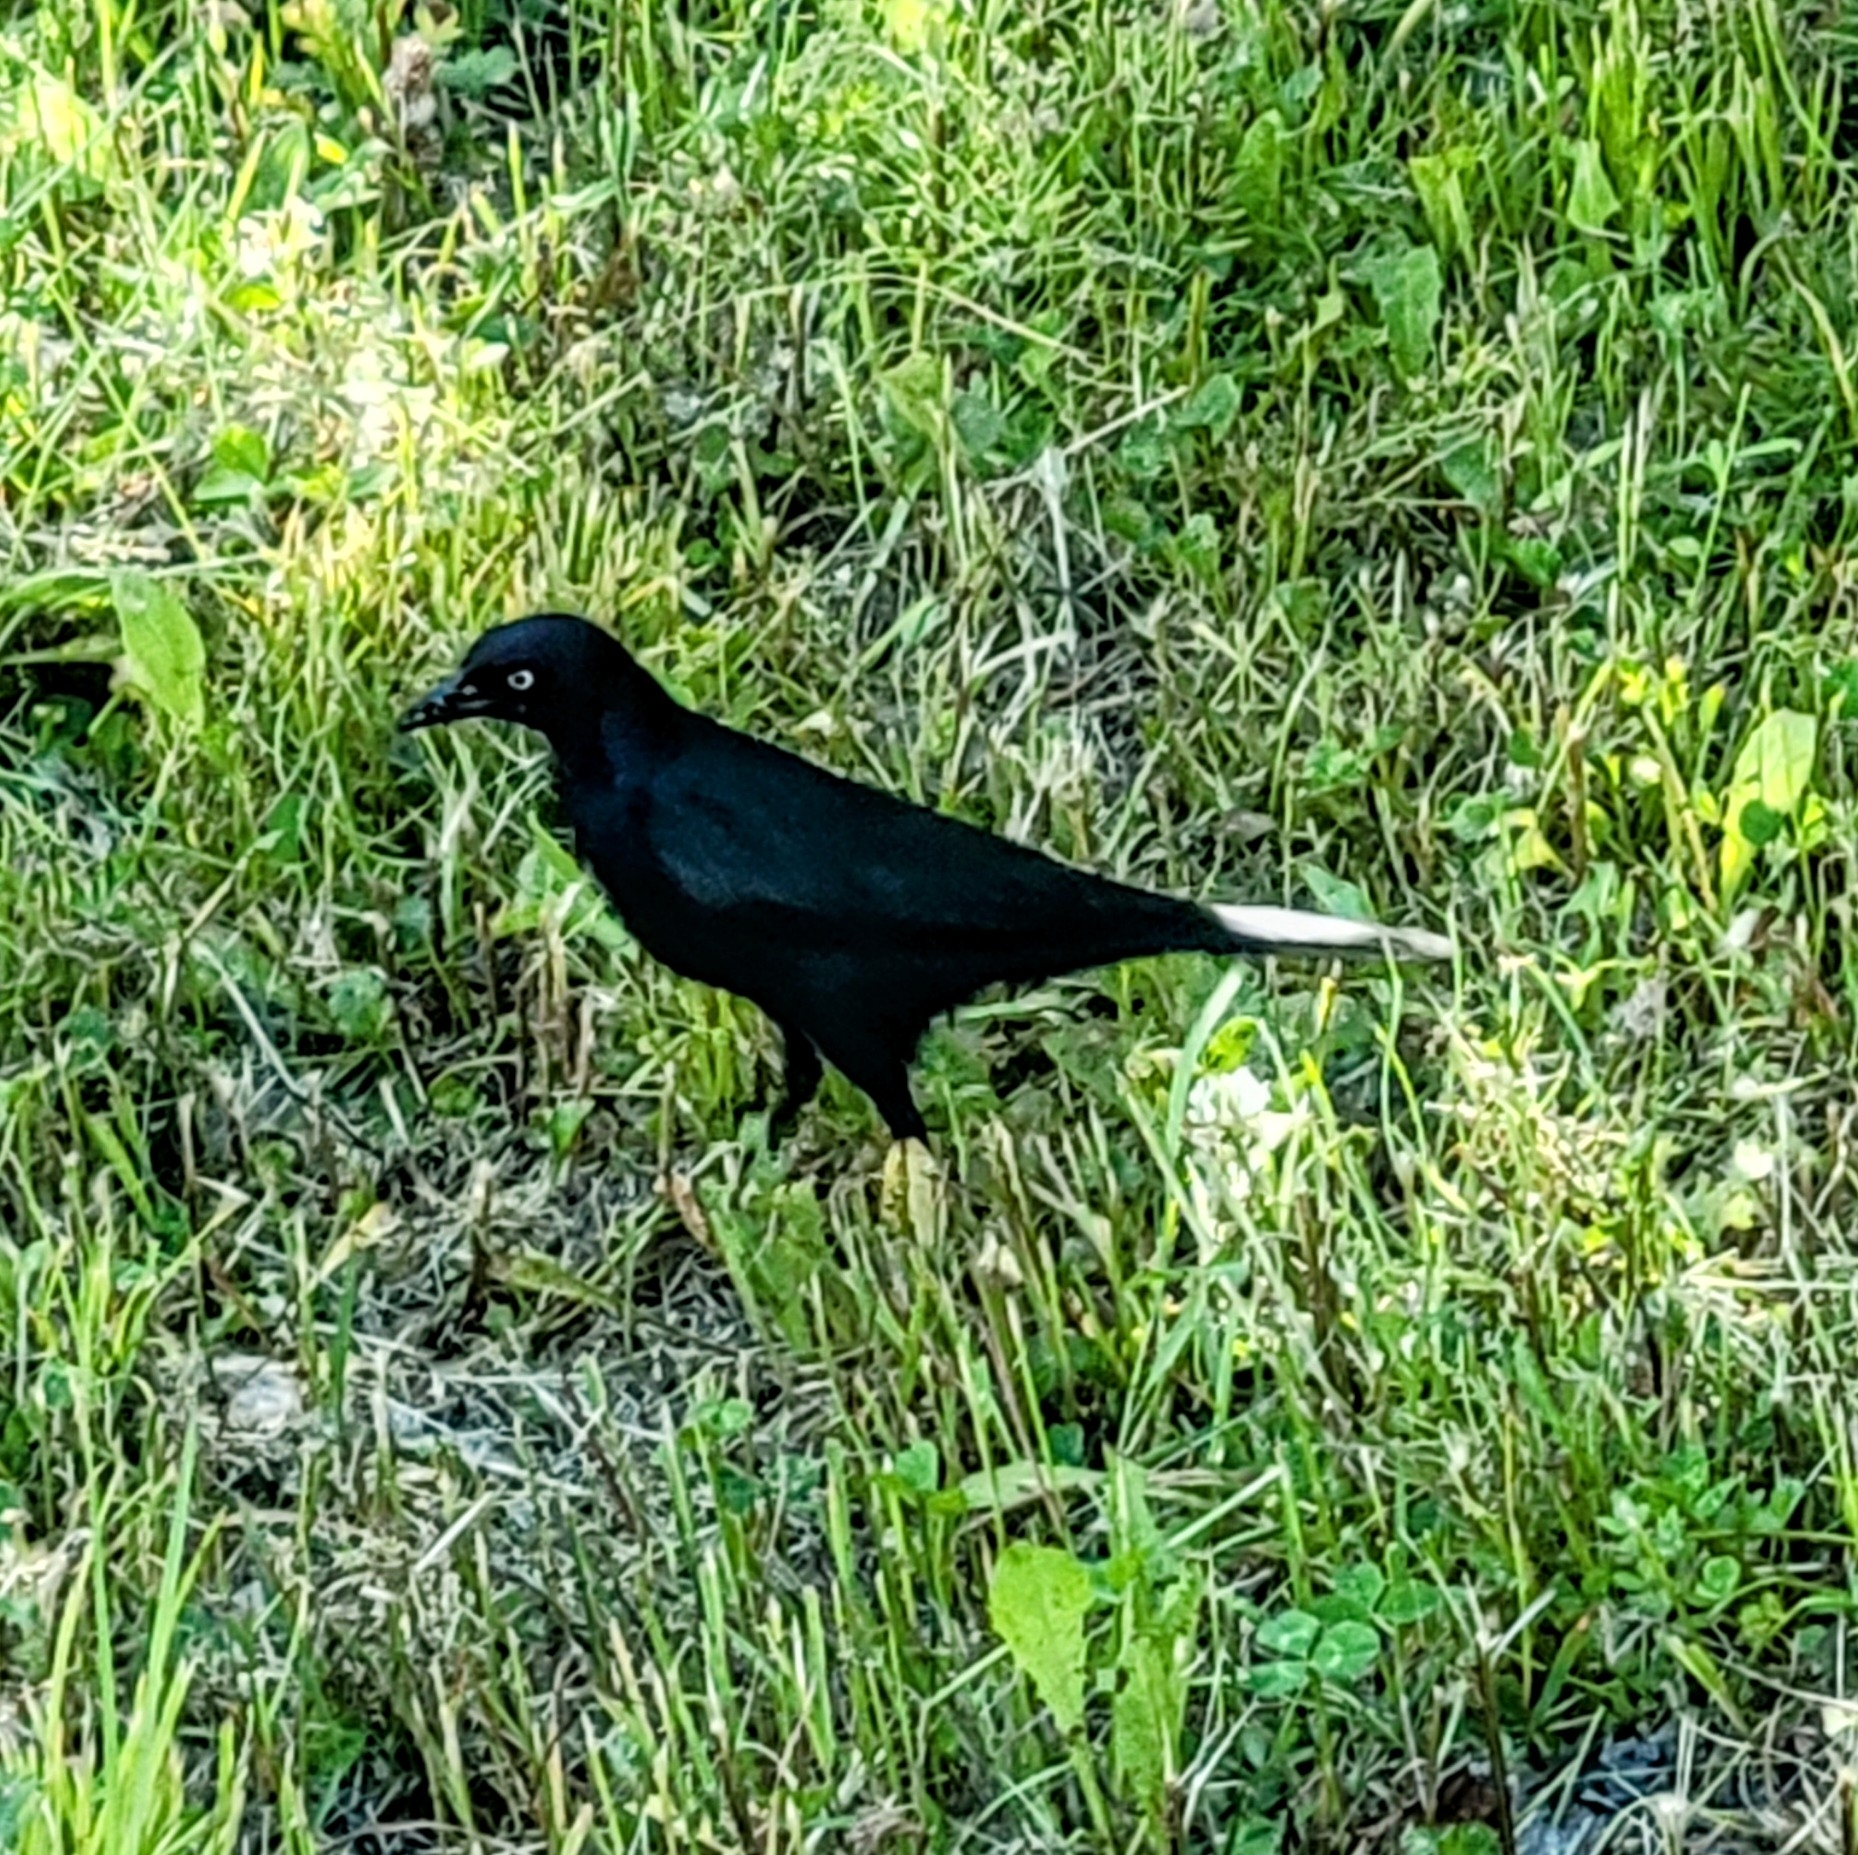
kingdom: Animalia
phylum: Chordata
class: Aves
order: Passeriformes
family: Icteridae
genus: Euphagus
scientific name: Euphagus cyanocephalus
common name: Brewer's blackbird
